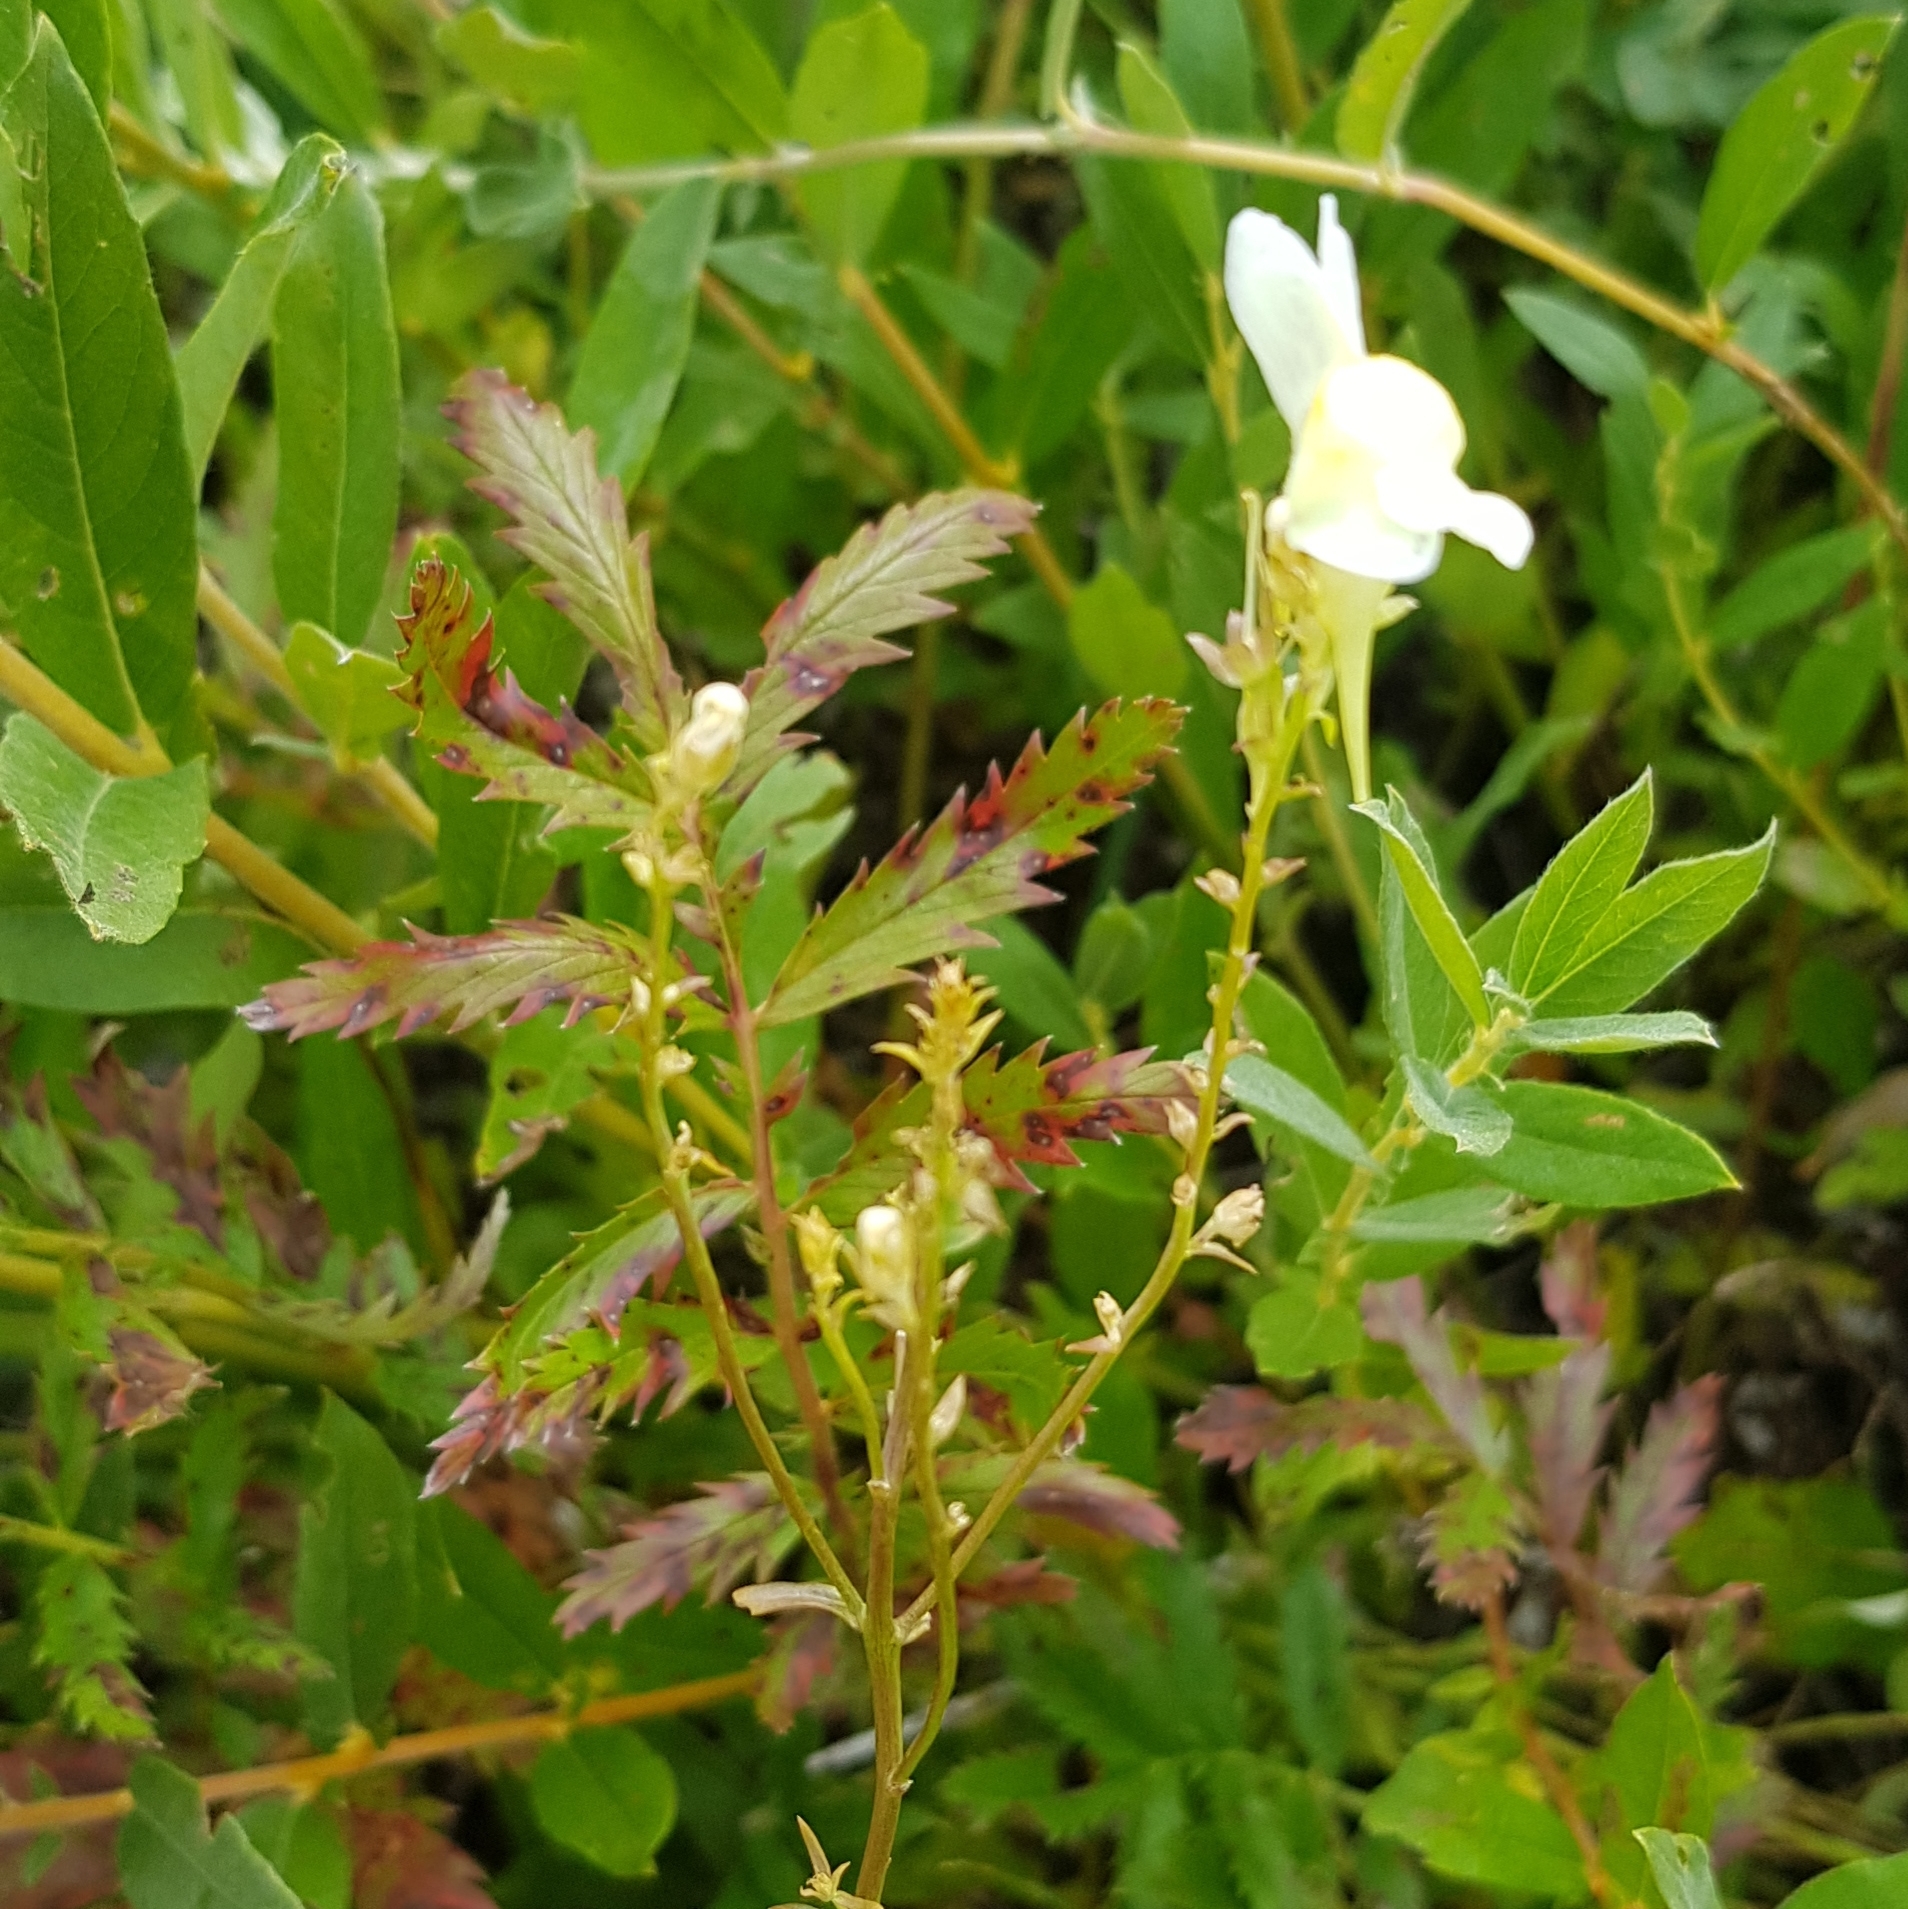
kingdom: Plantae
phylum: Tracheophyta
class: Magnoliopsida
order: Lamiales
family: Plantaginaceae
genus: Linaria
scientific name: Linaria vulgaris
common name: Butter and eggs
